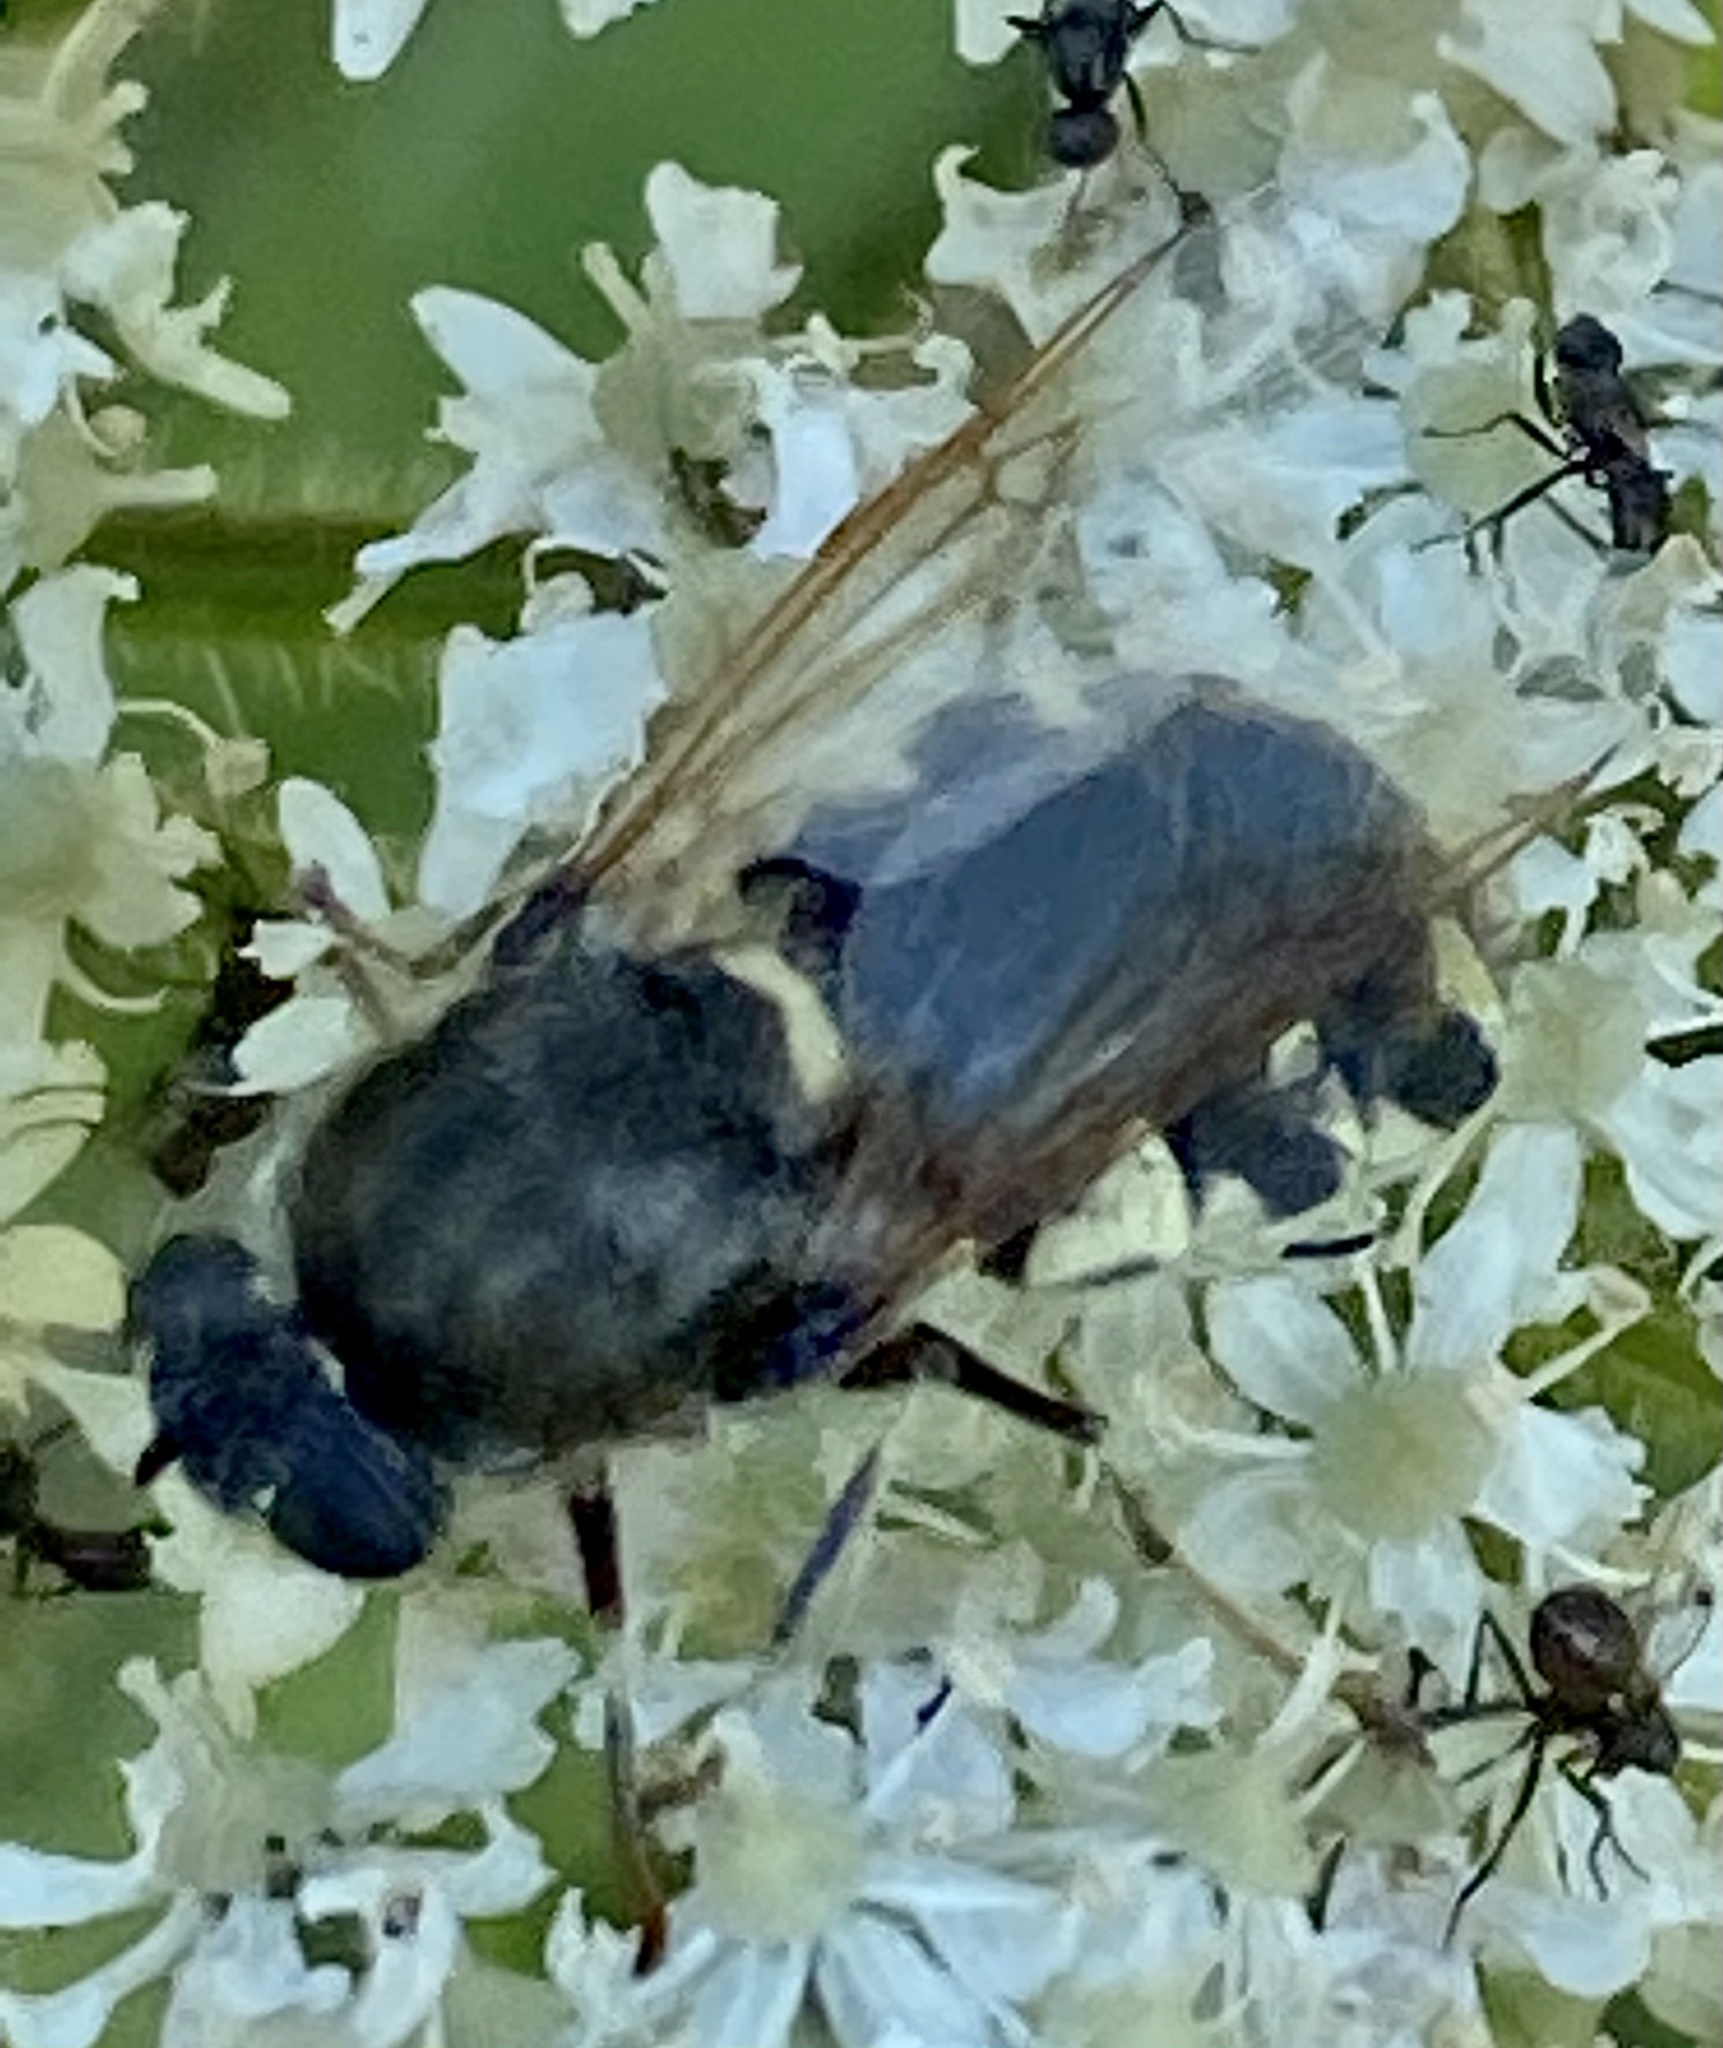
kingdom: Animalia
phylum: Arthropoda
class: Insecta
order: Diptera
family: Stratiomyidae
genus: Stratiomys
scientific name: Stratiomys singularior
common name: Flecked general
